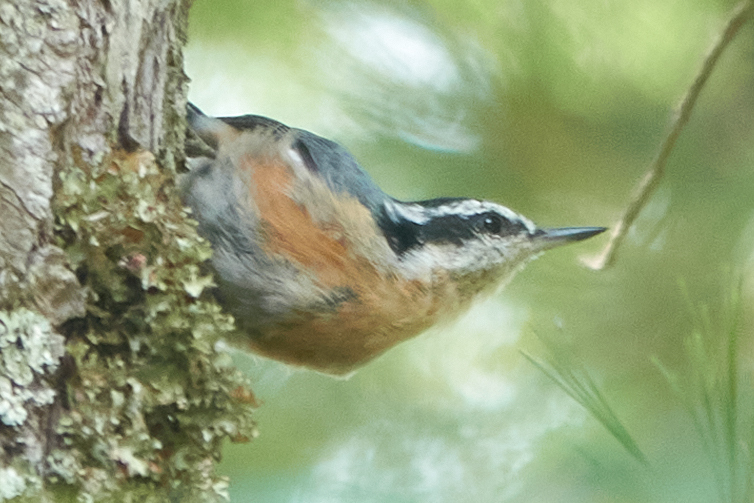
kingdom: Animalia
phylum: Chordata
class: Aves
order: Passeriformes
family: Sittidae
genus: Sitta
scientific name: Sitta canadensis
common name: Red-breasted nuthatch
